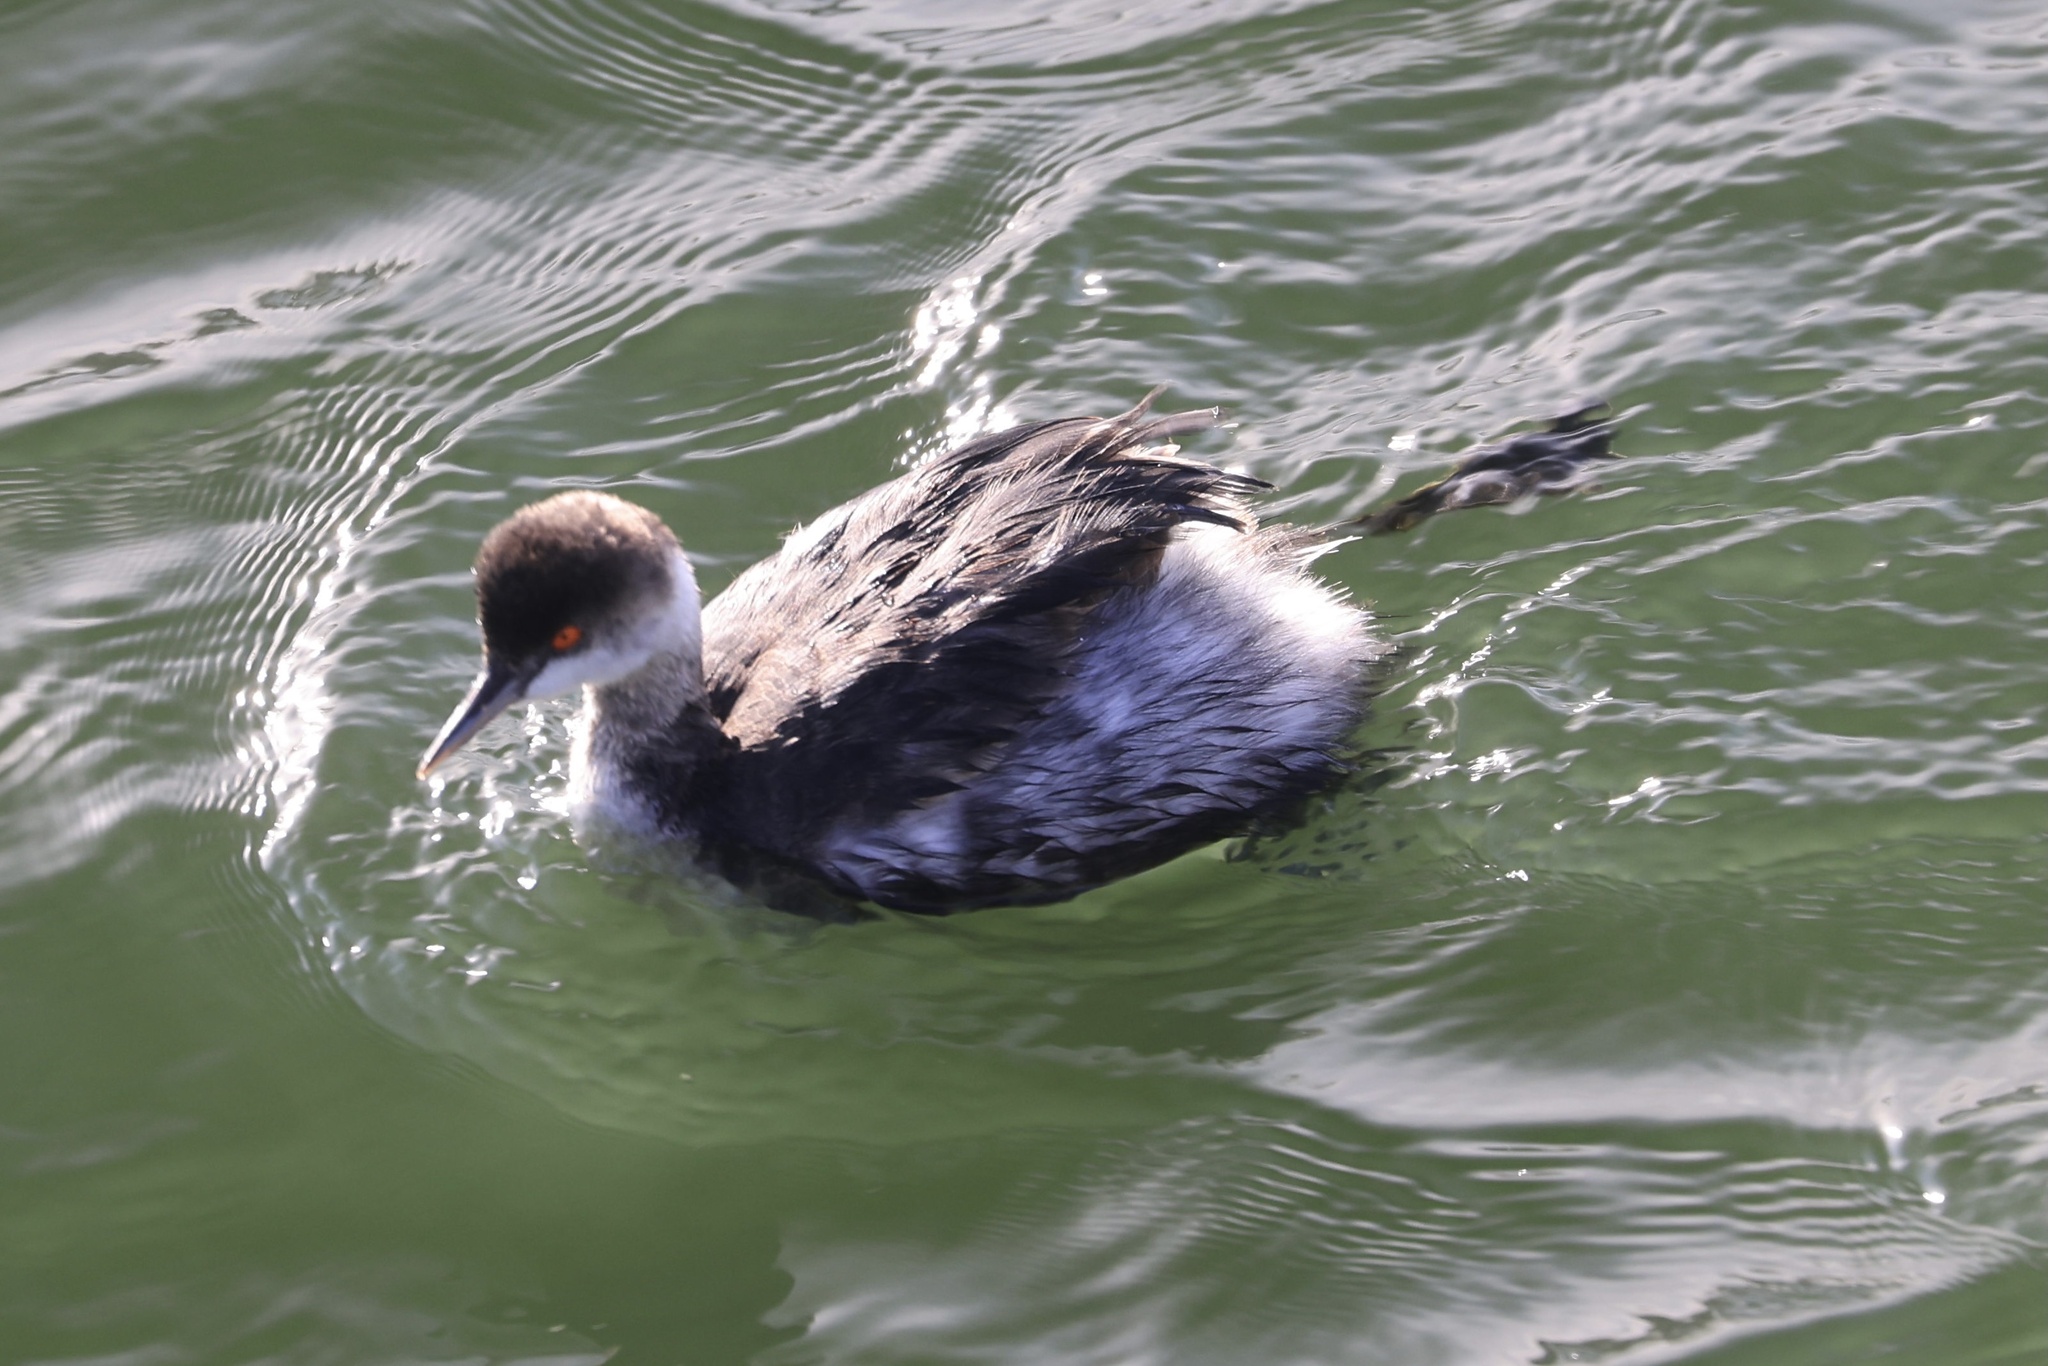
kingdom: Animalia
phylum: Chordata
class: Aves
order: Podicipediformes
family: Podicipedidae
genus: Podiceps
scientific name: Podiceps nigricollis
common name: Black-necked grebe
